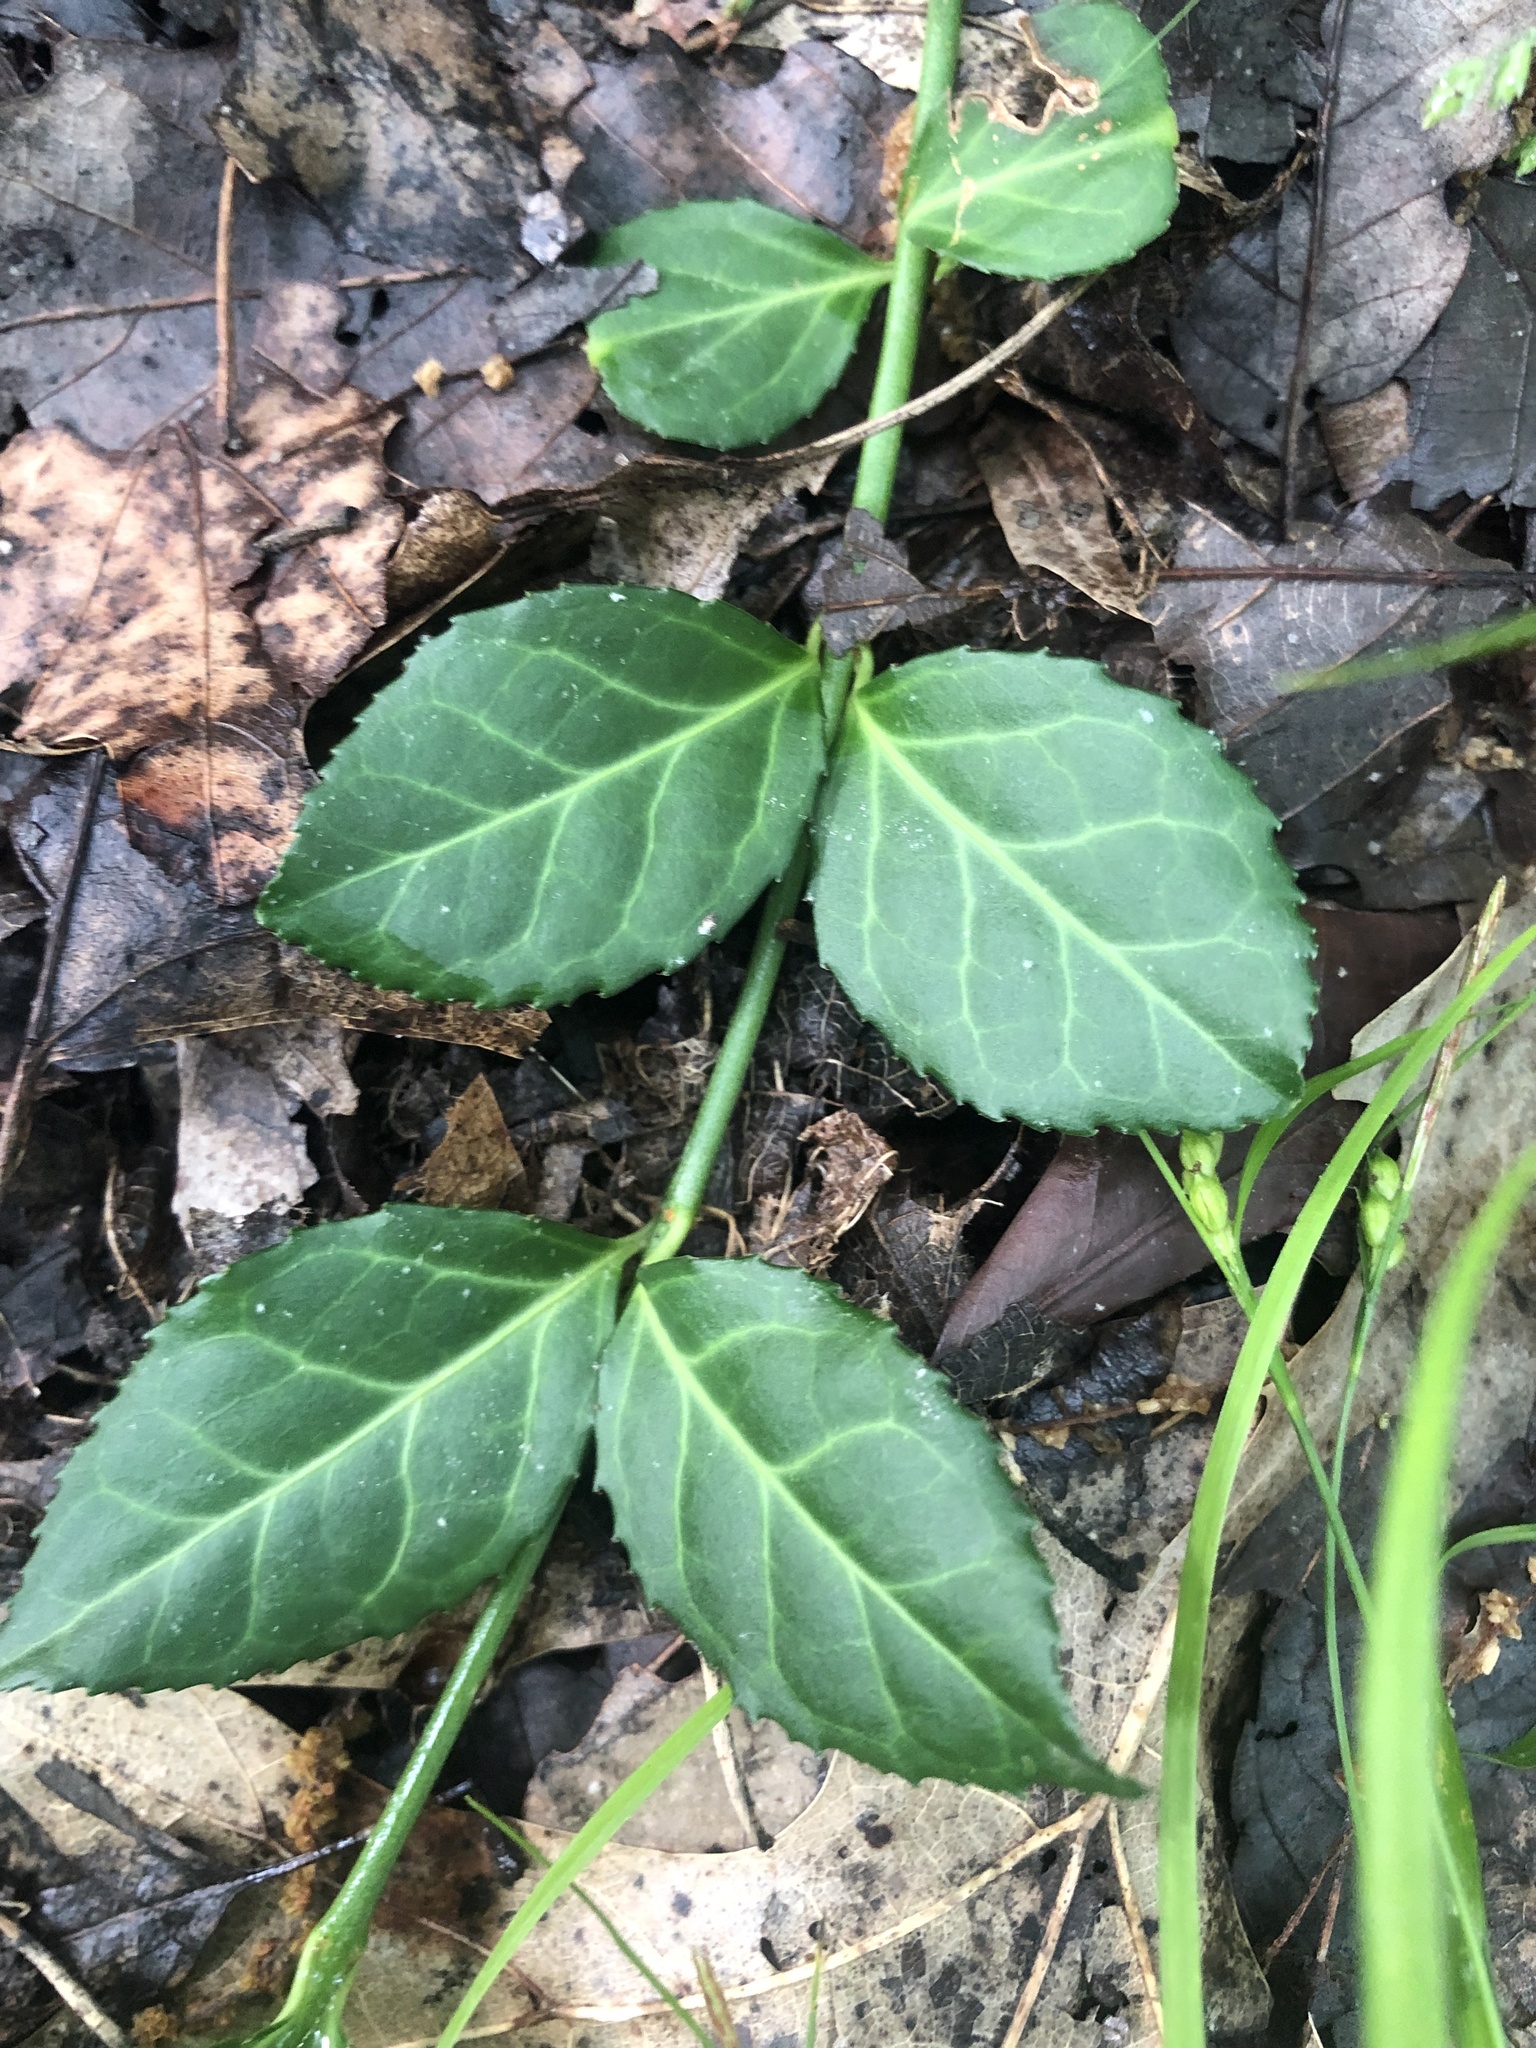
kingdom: Plantae
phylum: Tracheophyta
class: Magnoliopsida
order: Celastrales
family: Celastraceae
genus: Euonymus
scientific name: Euonymus fortunei
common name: Climbing euonymus
